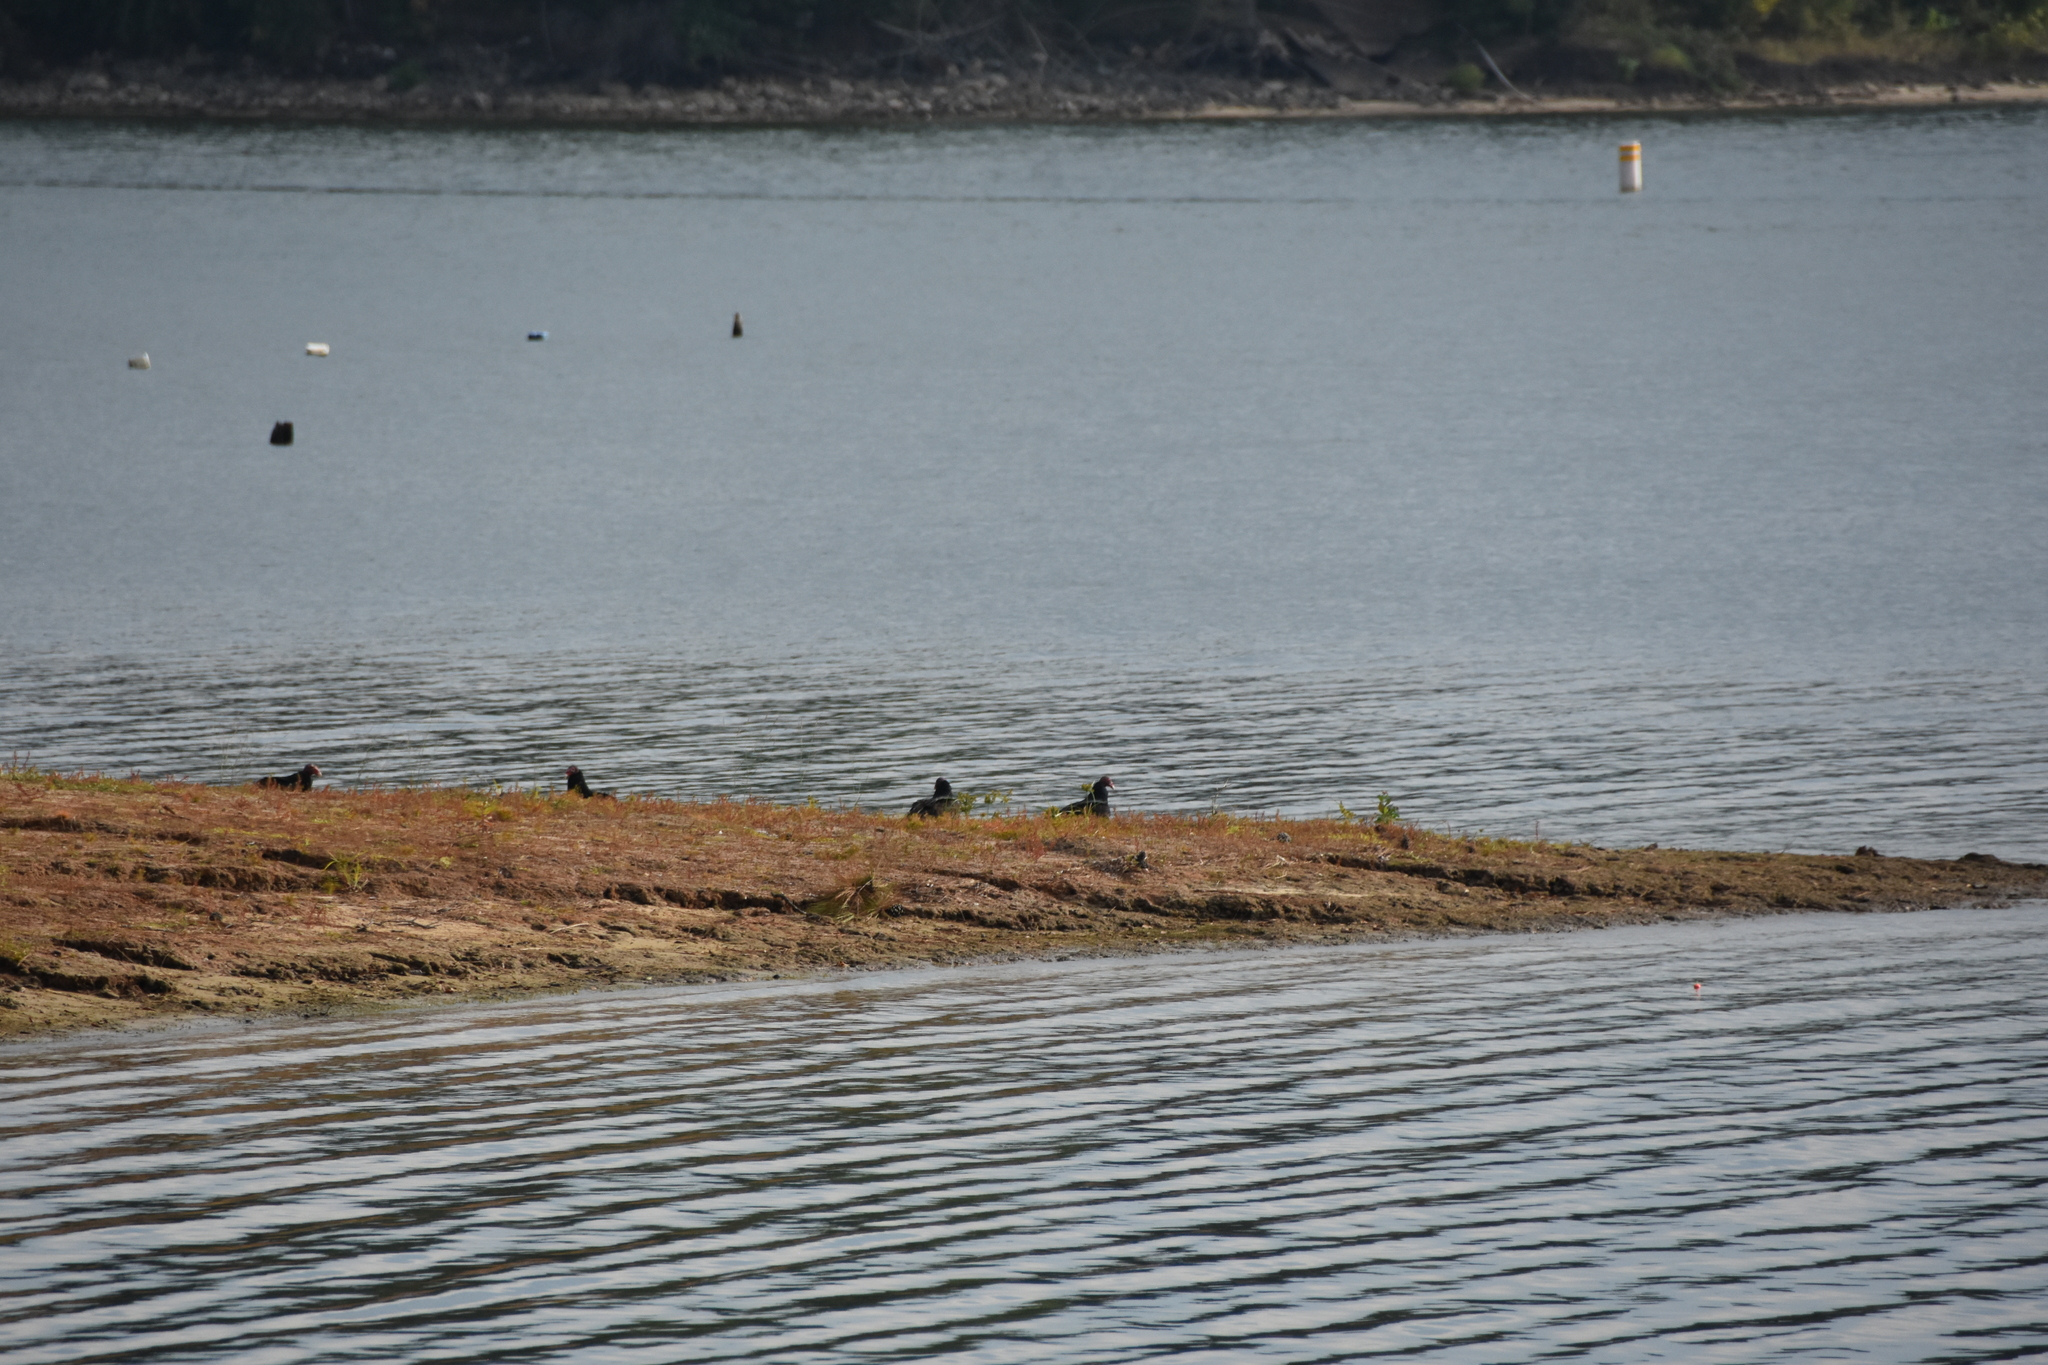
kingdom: Animalia
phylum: Chordata
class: Aves
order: Accipitriformes
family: Cathartidae
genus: Cathartes
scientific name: Cathartes aura
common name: Turkey vulture
